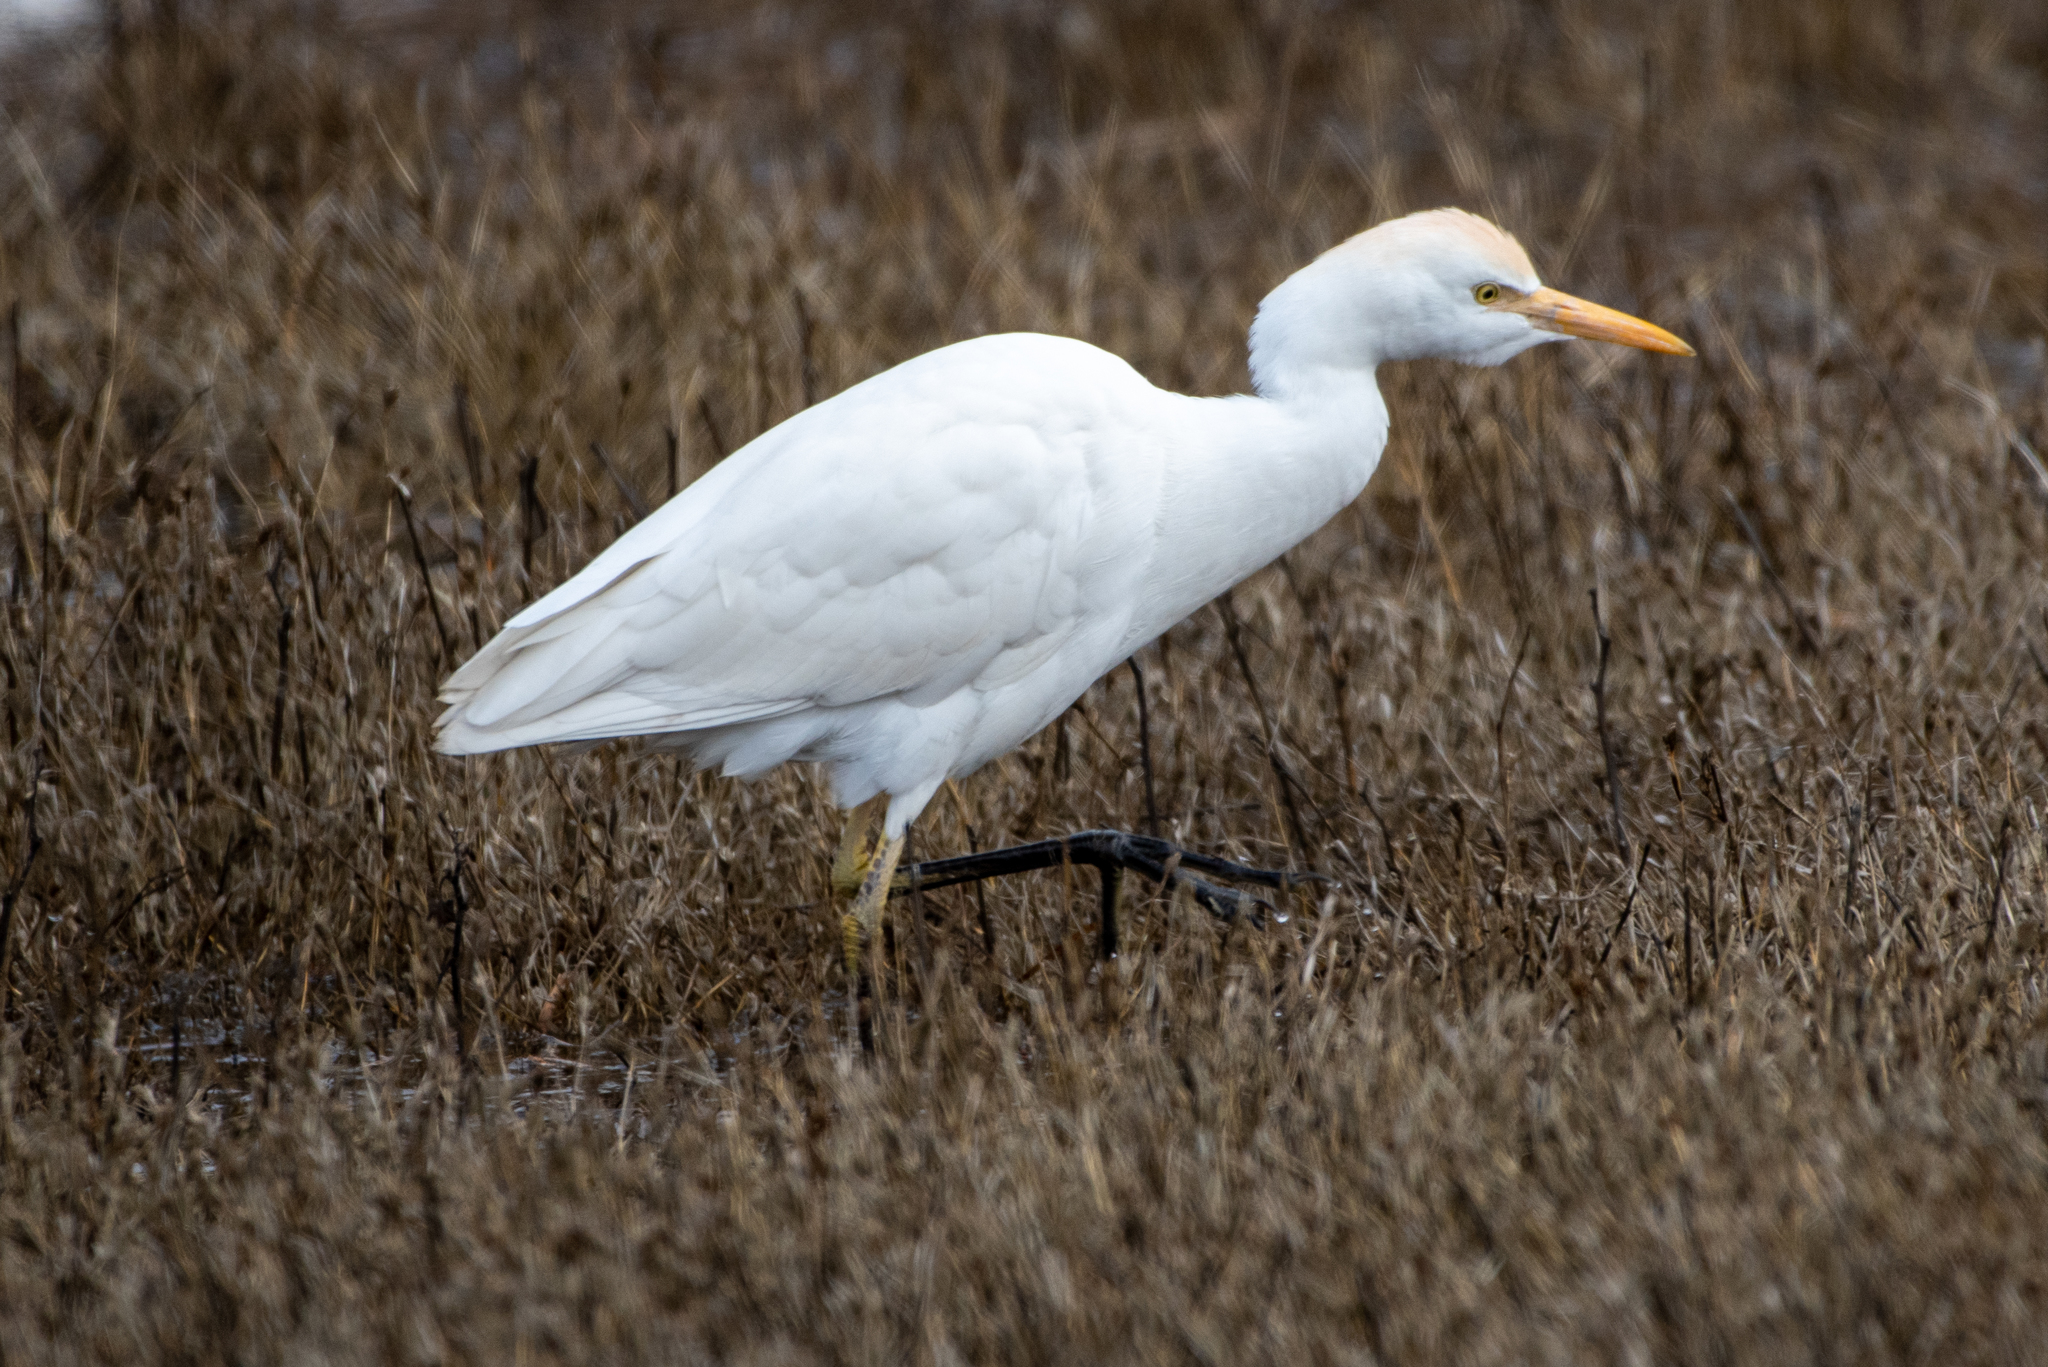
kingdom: Animalia
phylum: Chordata
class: Aves
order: Pelecaniformes
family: Ardeidae
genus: Bubulcus
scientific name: Bubulcus ibis
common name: Cattle egret
